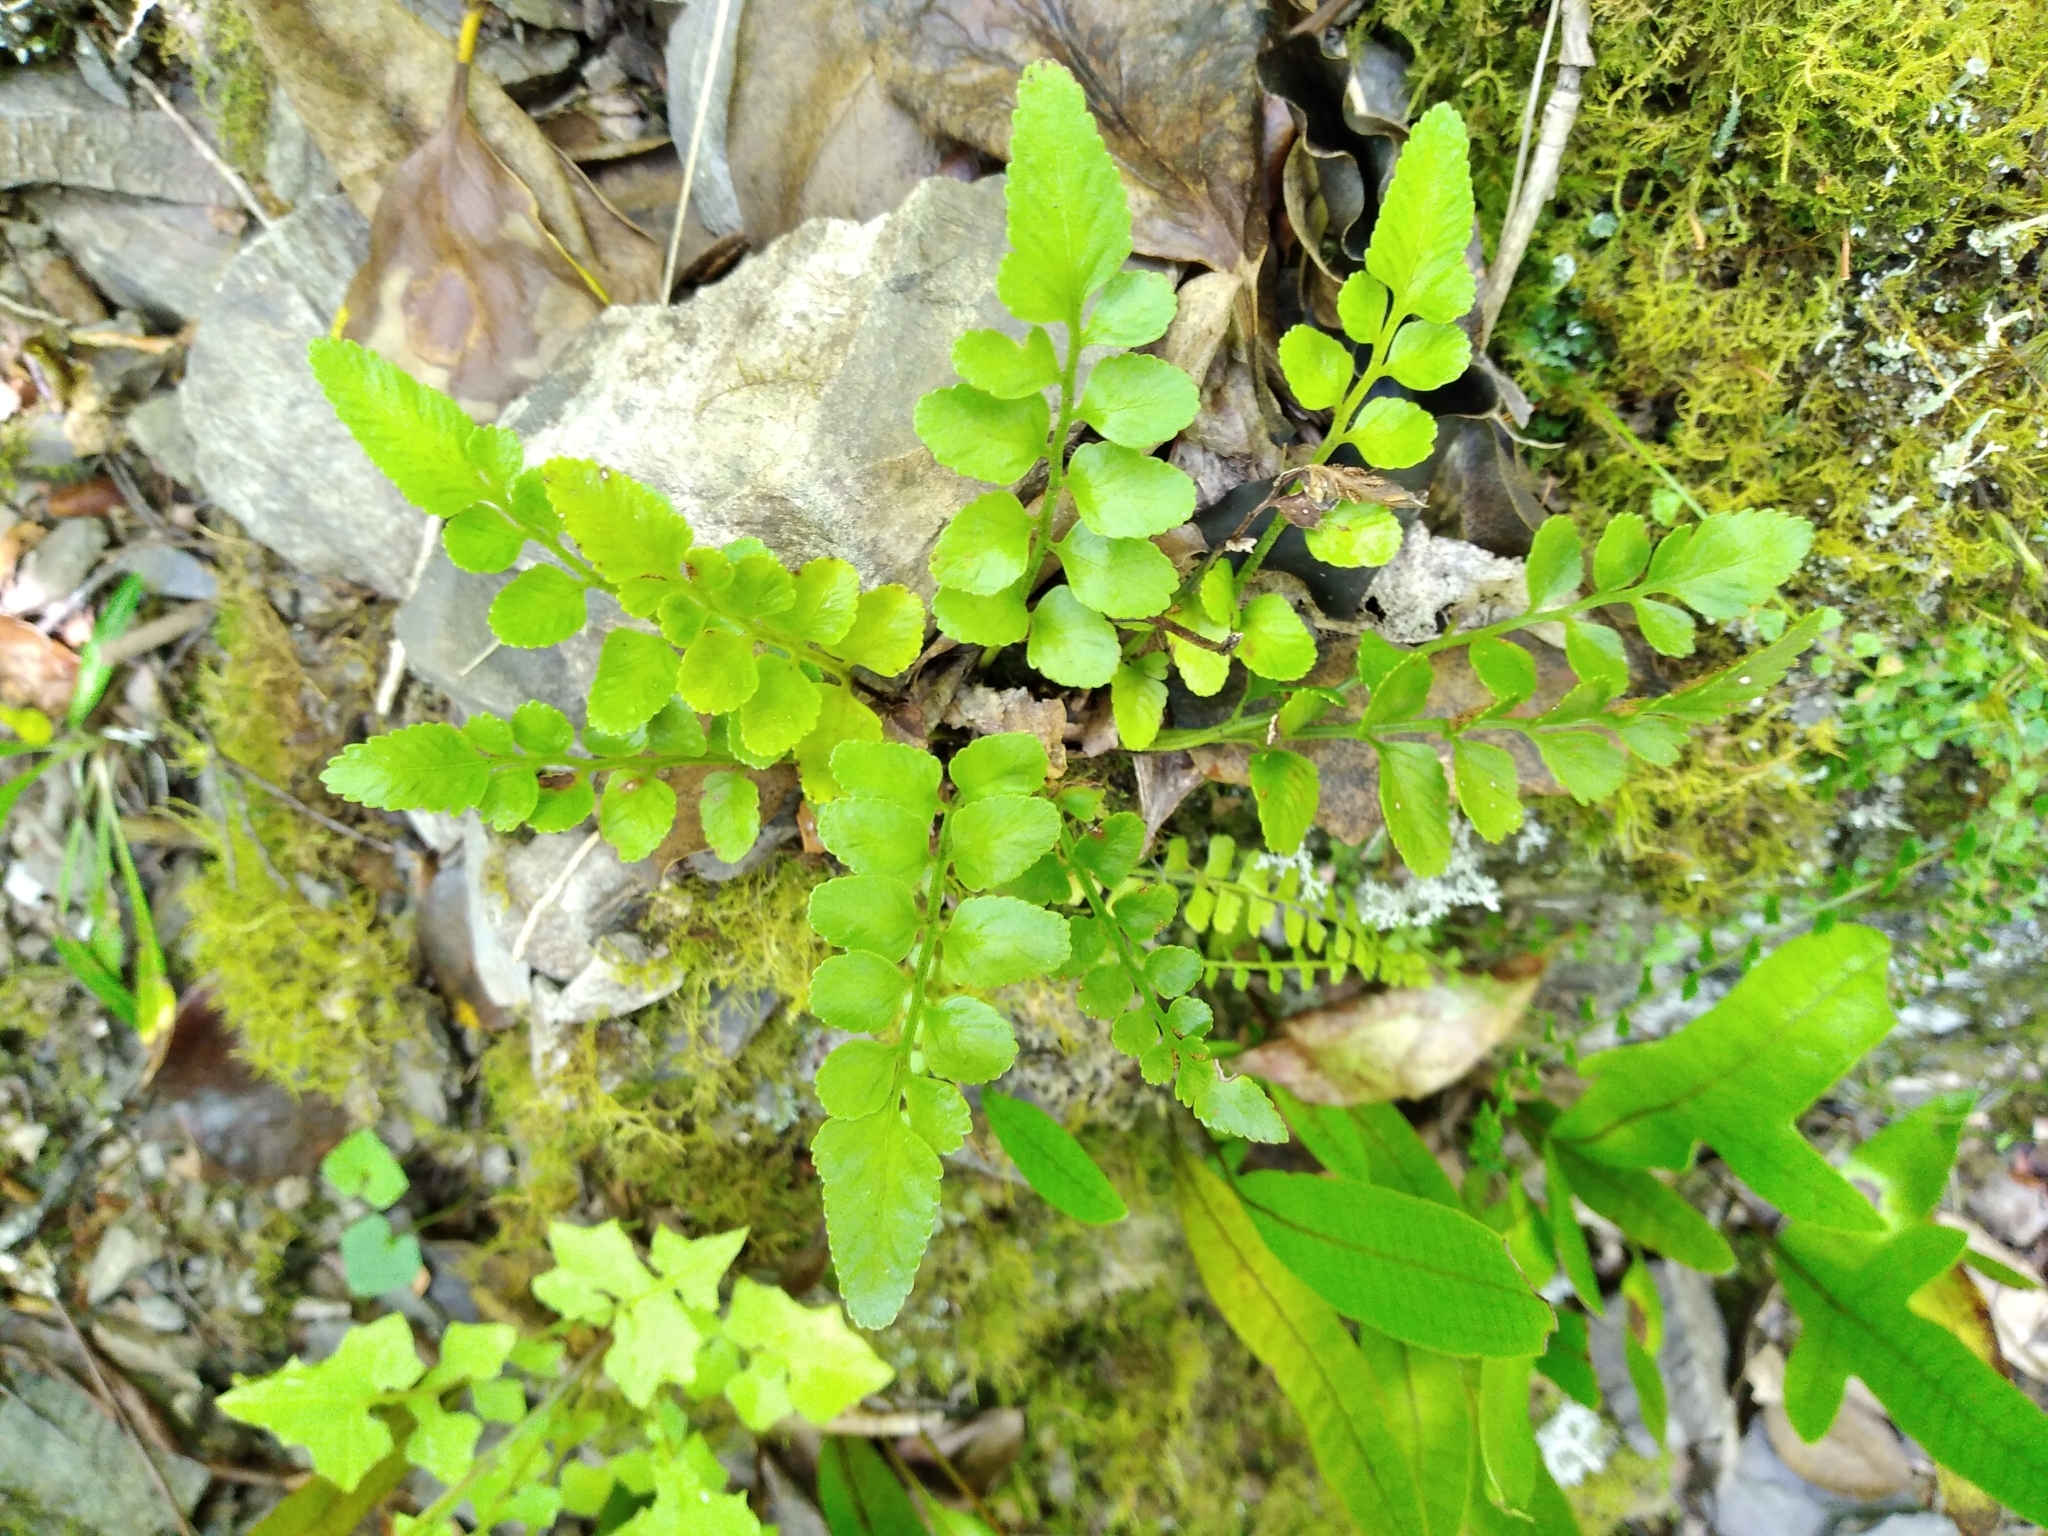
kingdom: Plantae
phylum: Tracheophyta
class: Polypodiopsida
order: Polypodiales
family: Aspleniaceae
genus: Asplenium
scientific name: Asplenium lyallii
